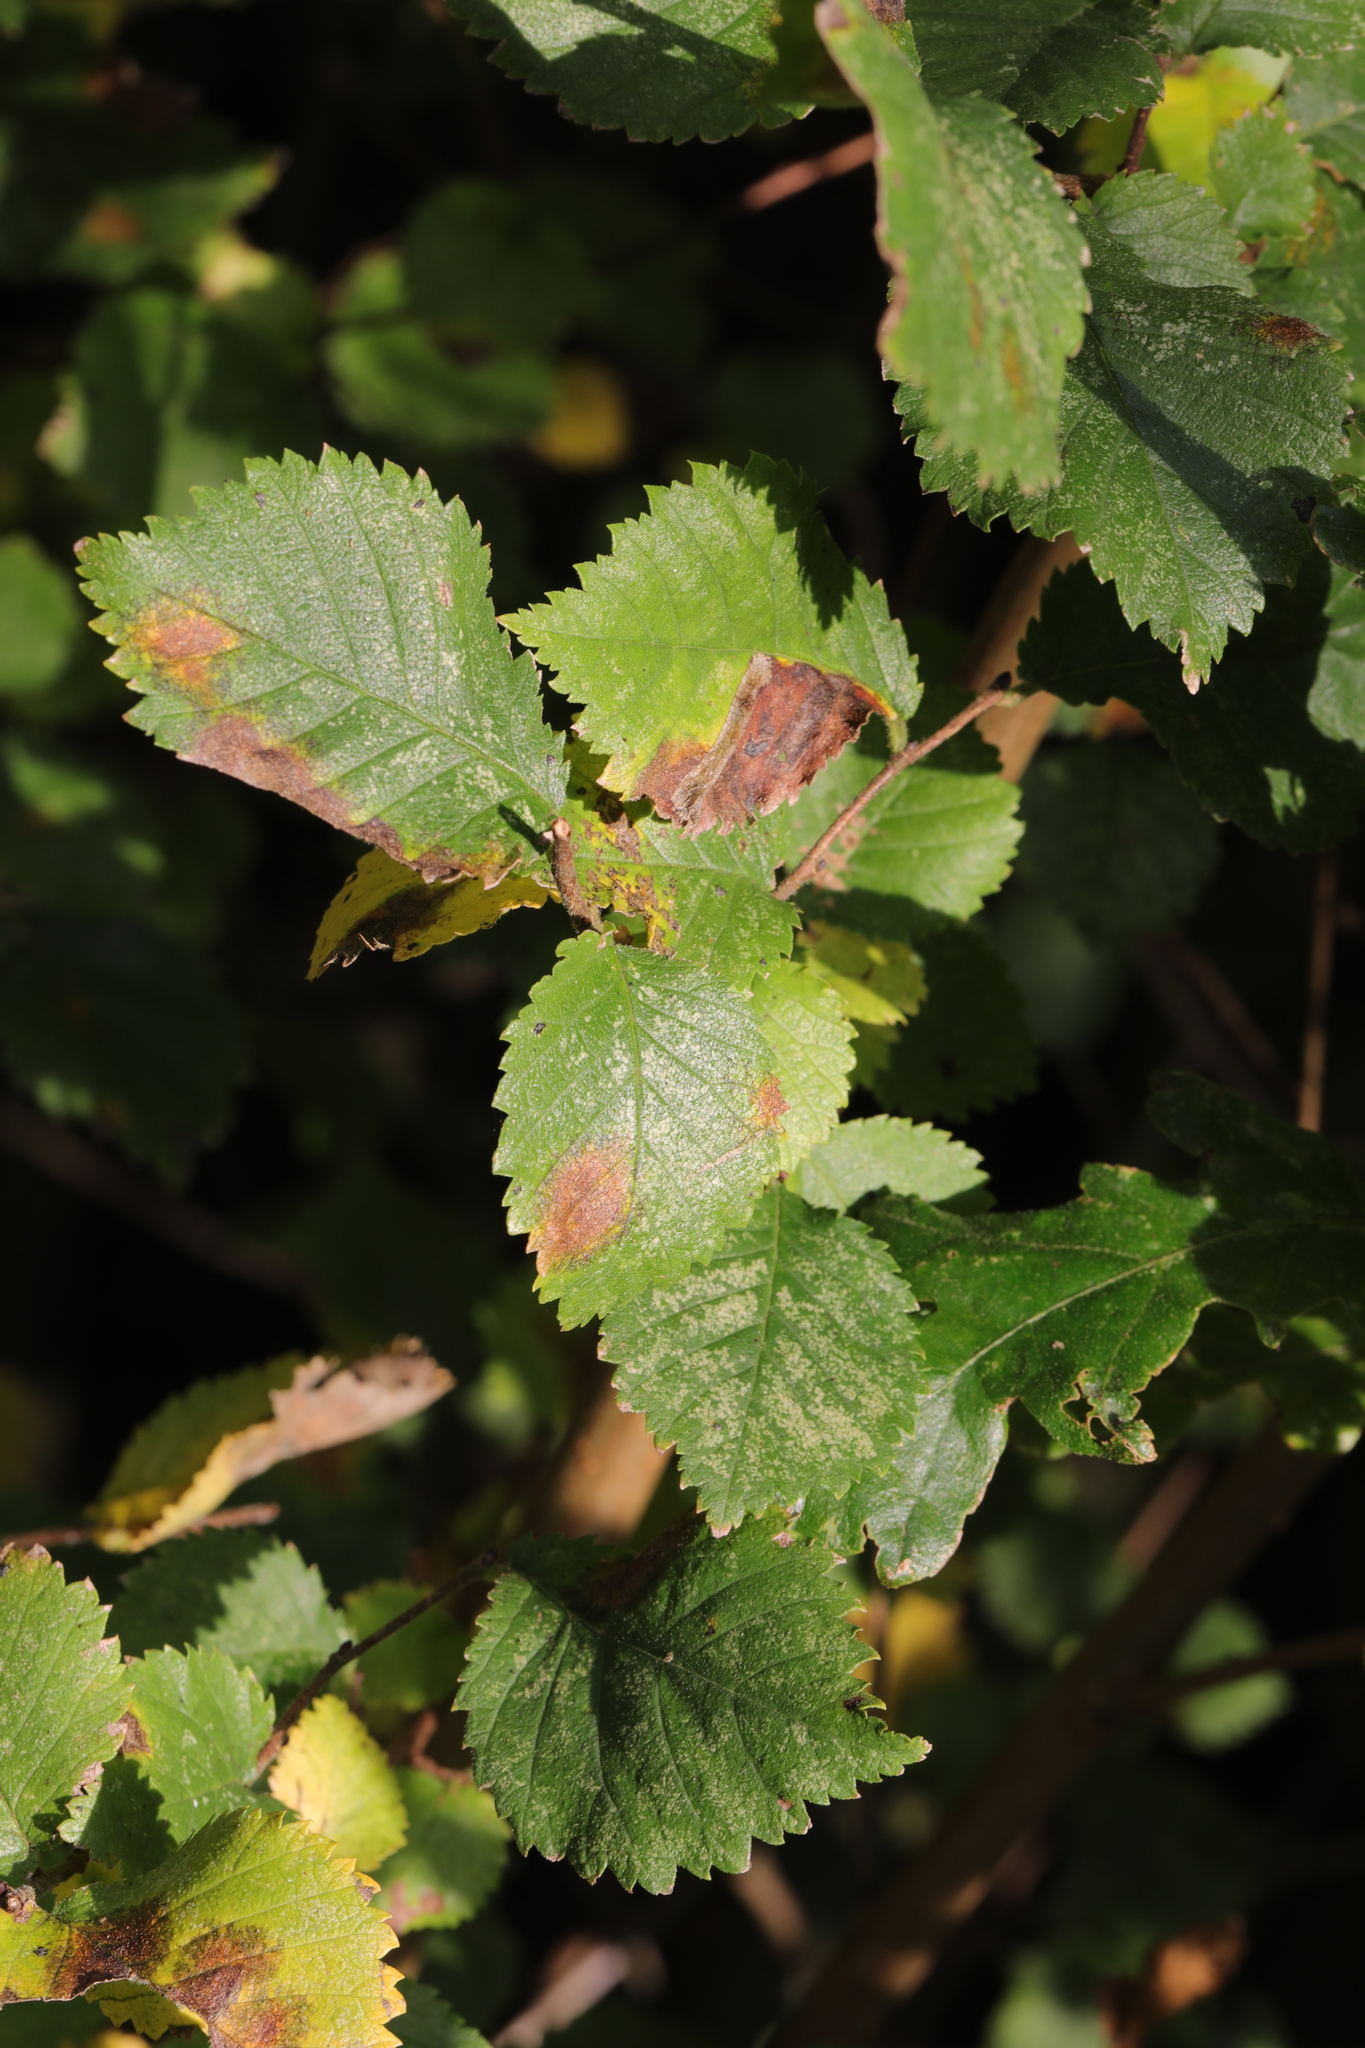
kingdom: Plantae
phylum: Tracheophyta
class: Magnoliopsida
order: Rosales
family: Ulmaceae
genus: Ulmus
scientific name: Ulmus minor
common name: Small-leaved elm
